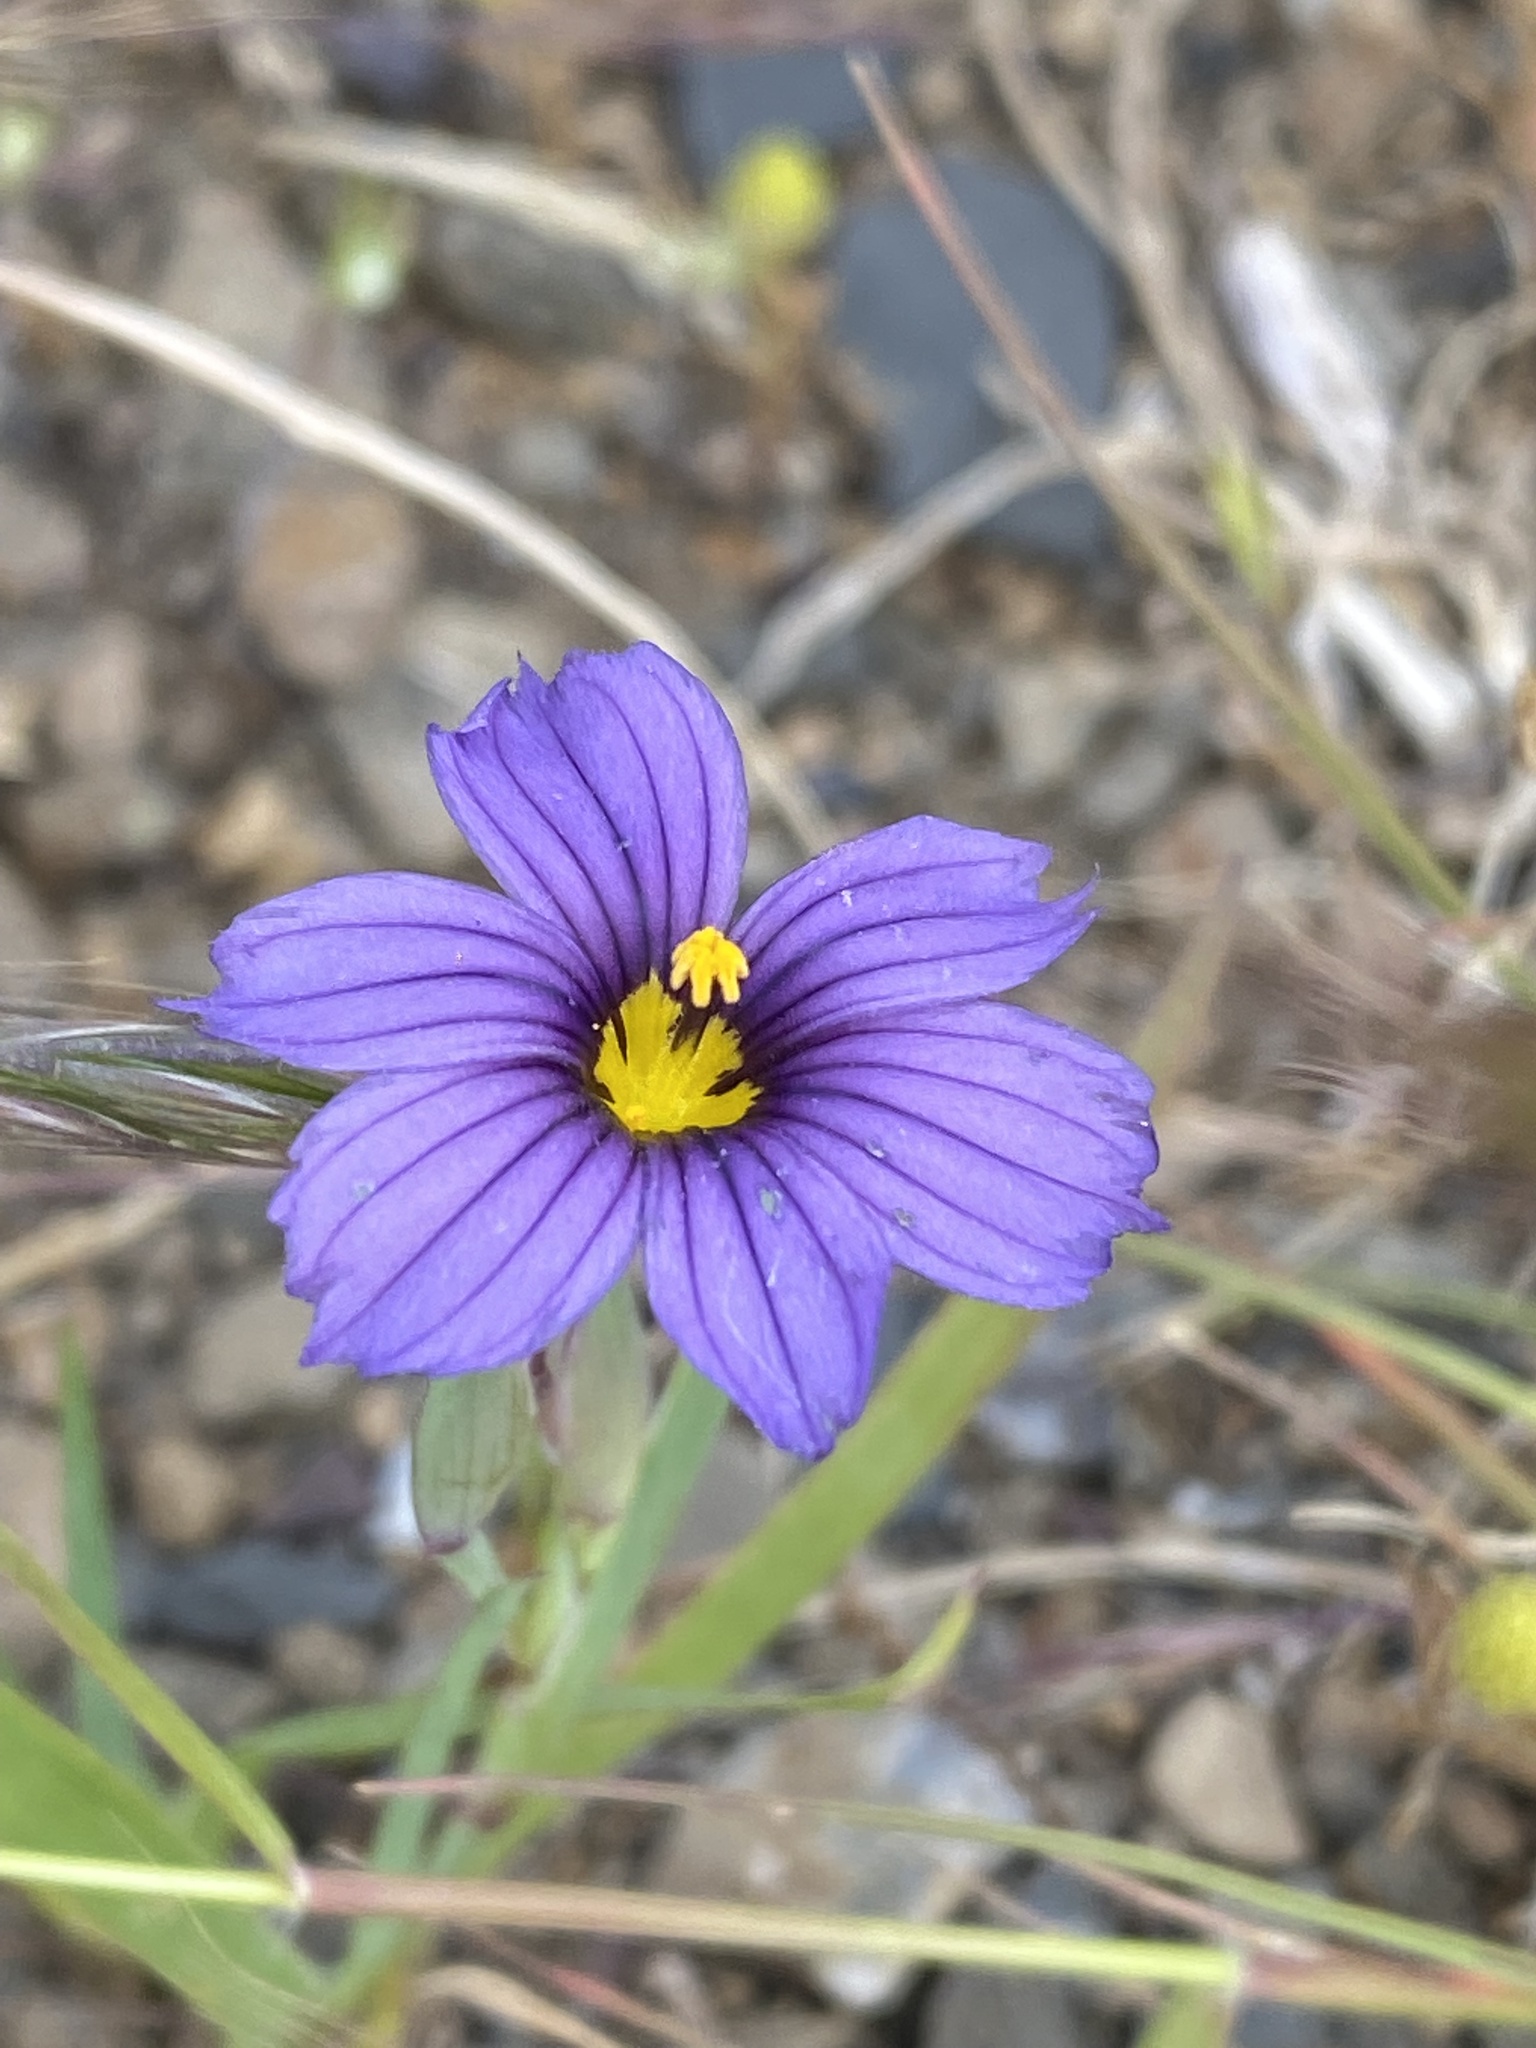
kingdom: Plantae
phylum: Tracheophyta
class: Liliopsida
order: Asparagales
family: Iridaceae
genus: Sisyrinchium
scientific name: Sisyrinchium bellum
